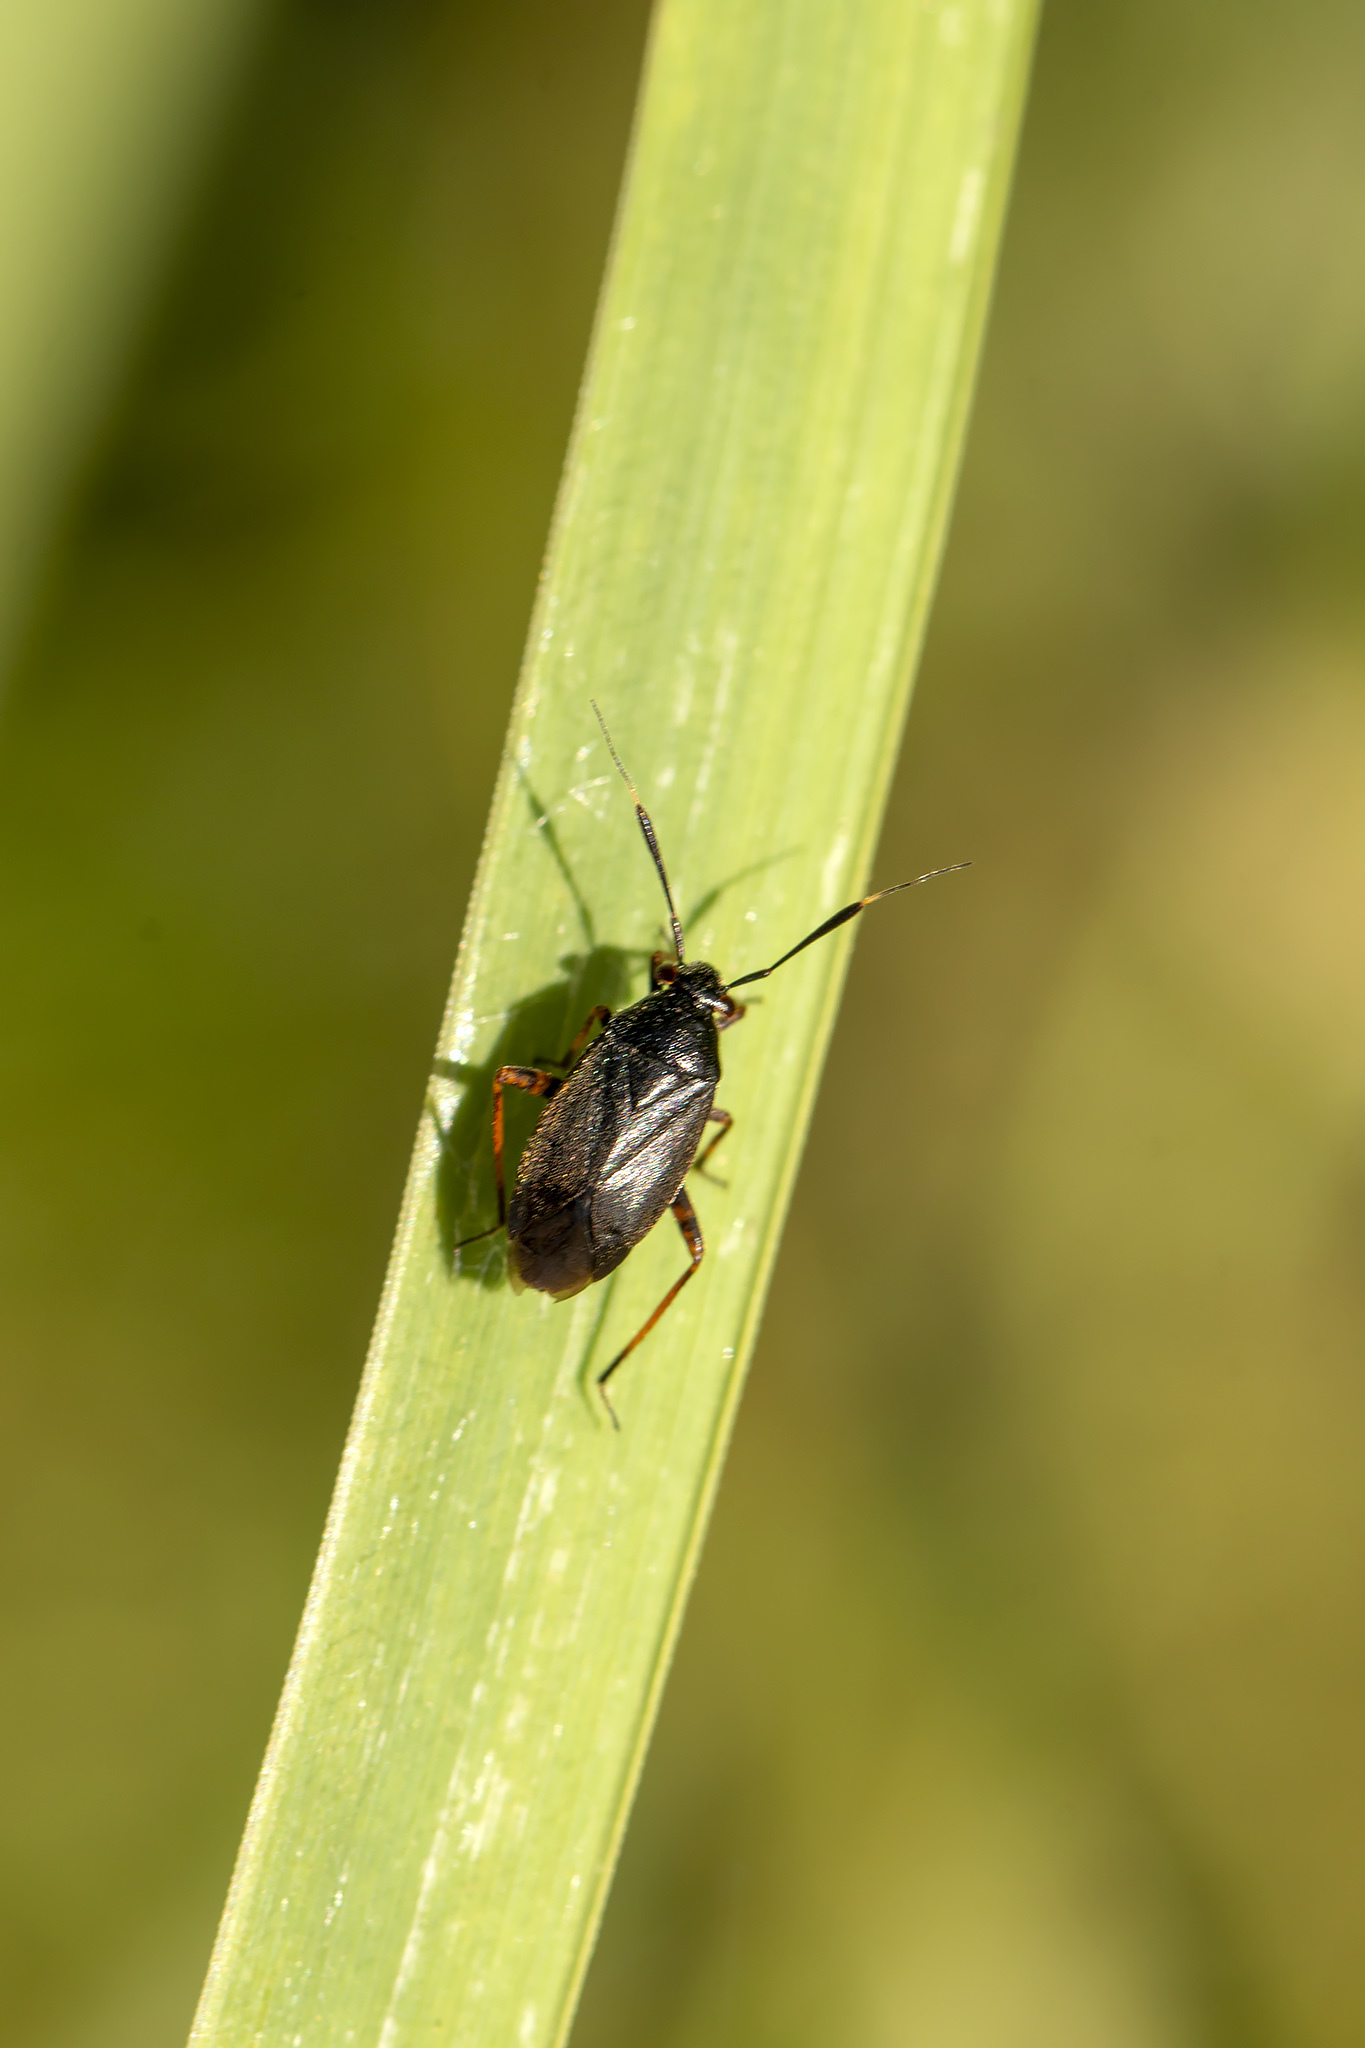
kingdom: Animalia
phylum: Arthropoda
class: Insecta
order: Hemiptera
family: Miridae
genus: Capsus
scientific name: Capsus ater
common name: Black plant bug
